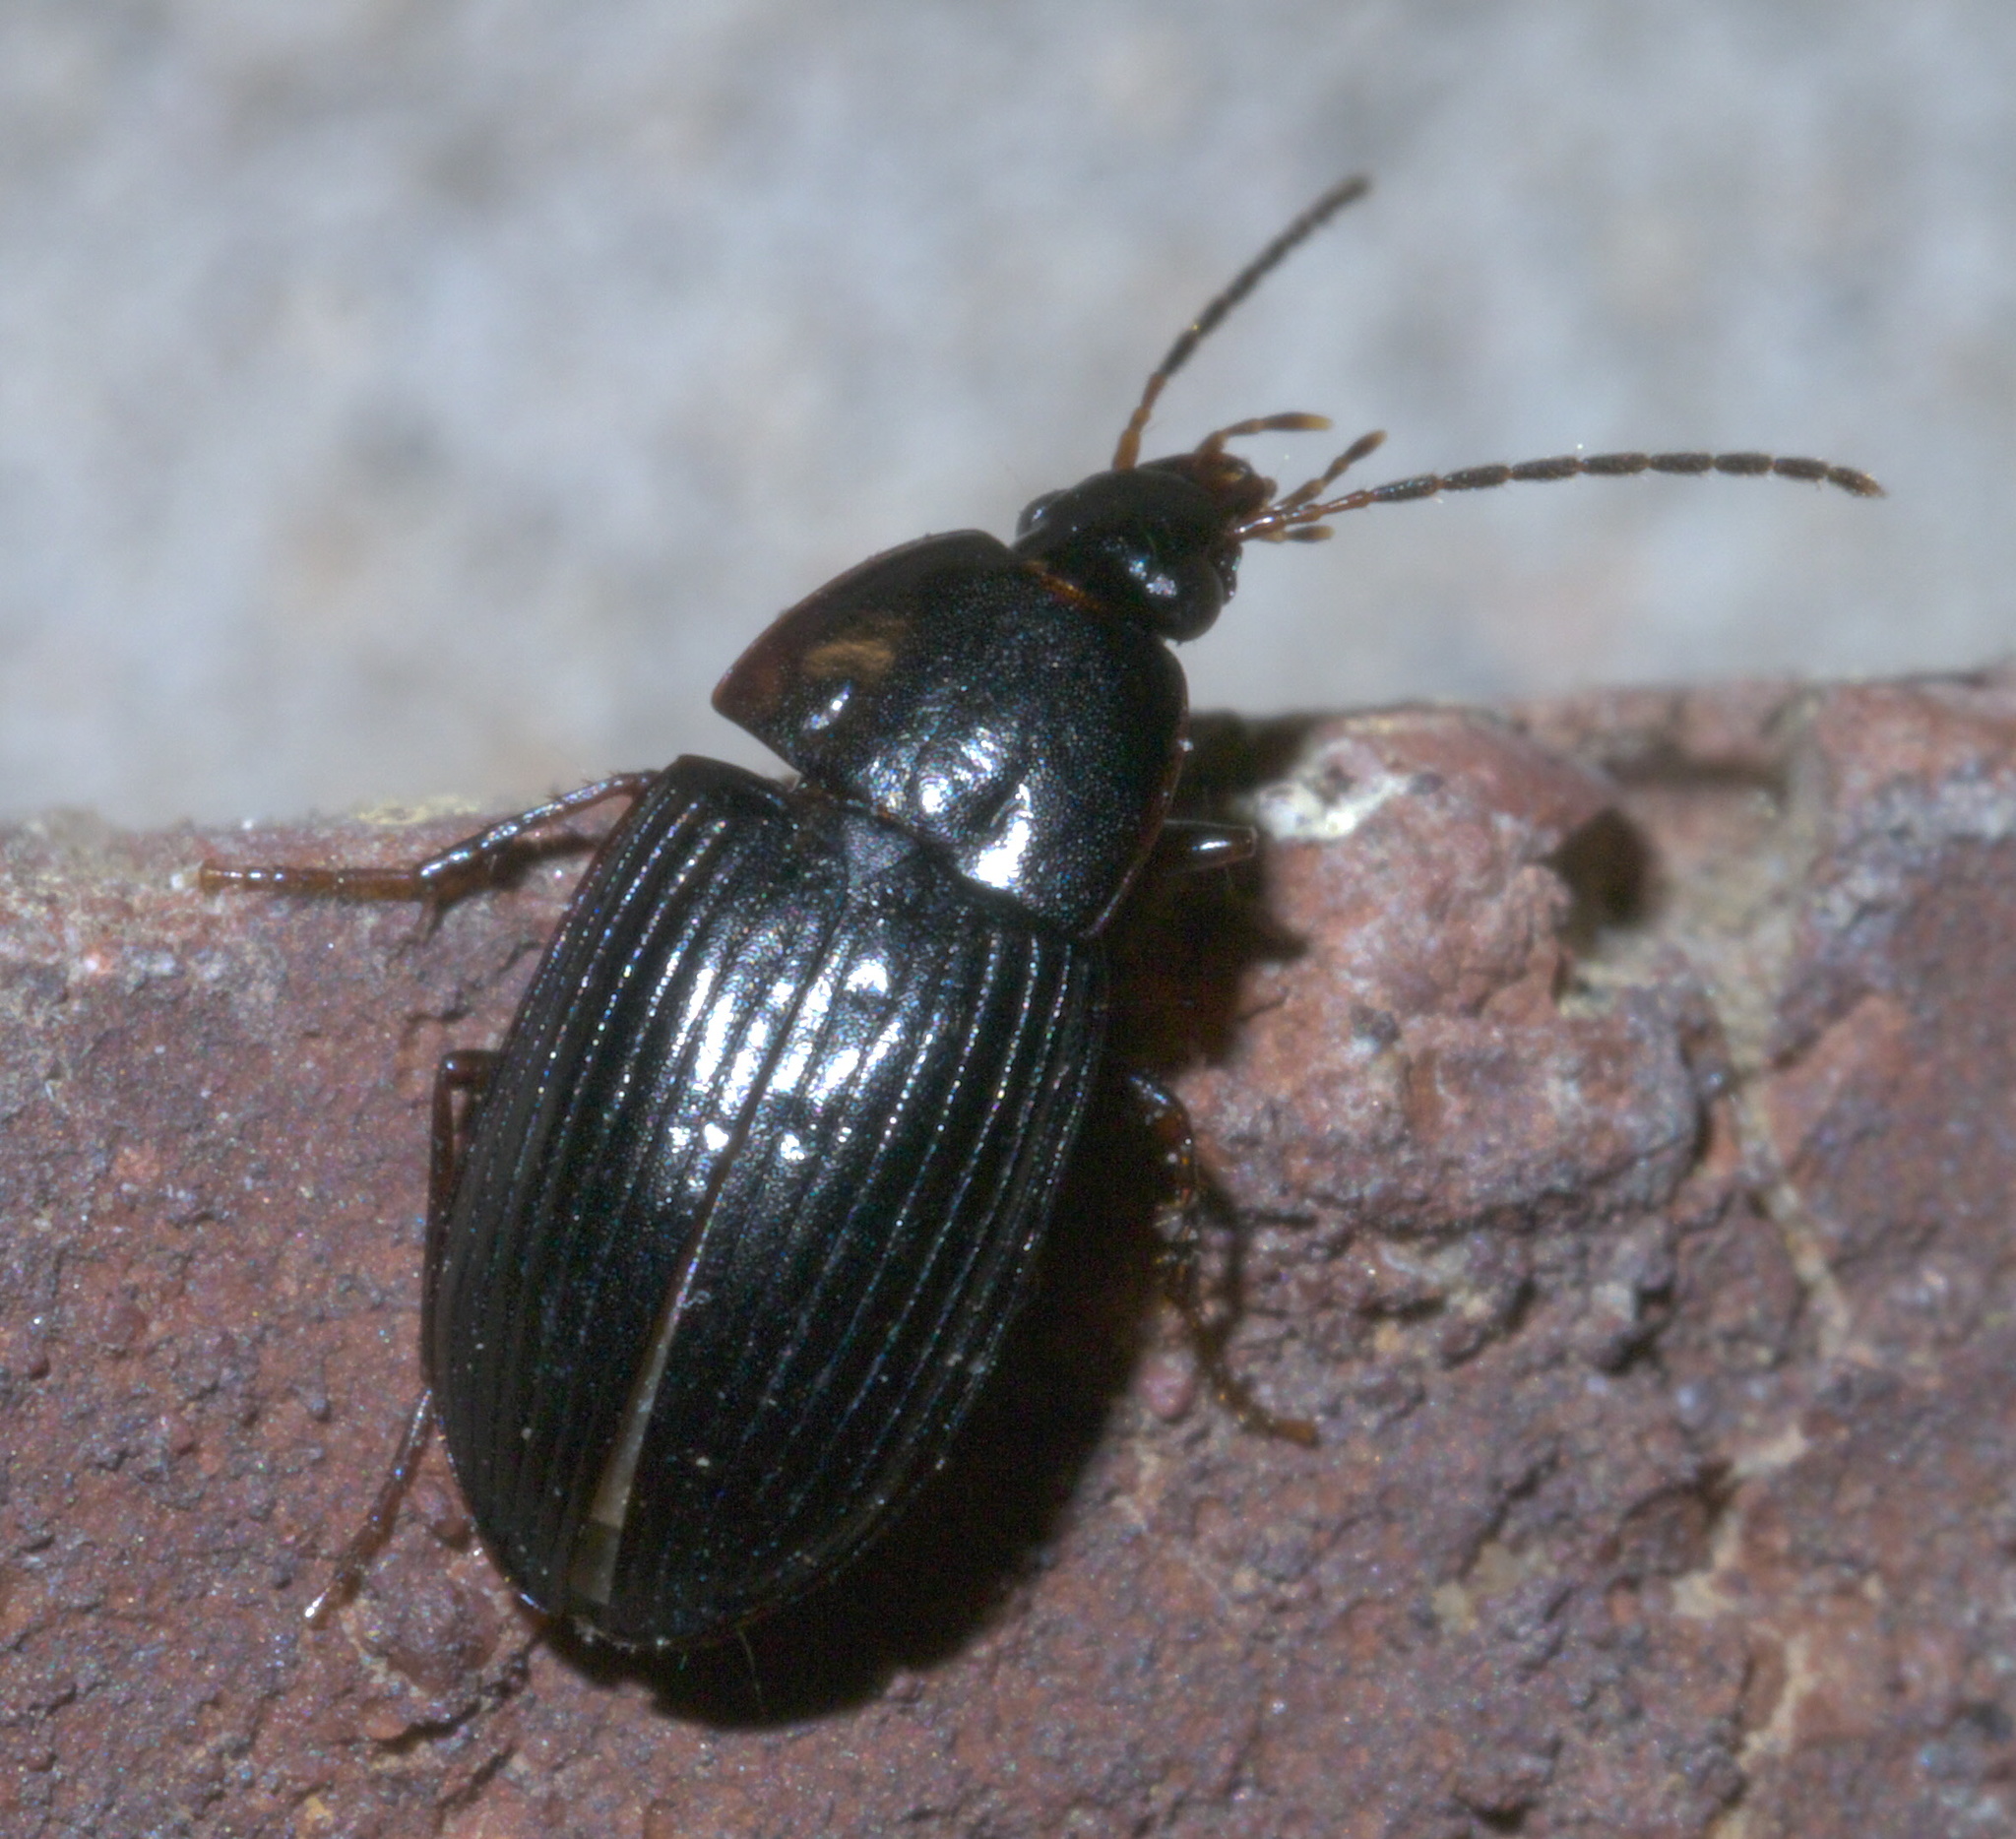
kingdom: Animalia
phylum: Arthropoda
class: Insecta
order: Coleoptera
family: Carabidae
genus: Anatrichis
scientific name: Anatrichis minuta
